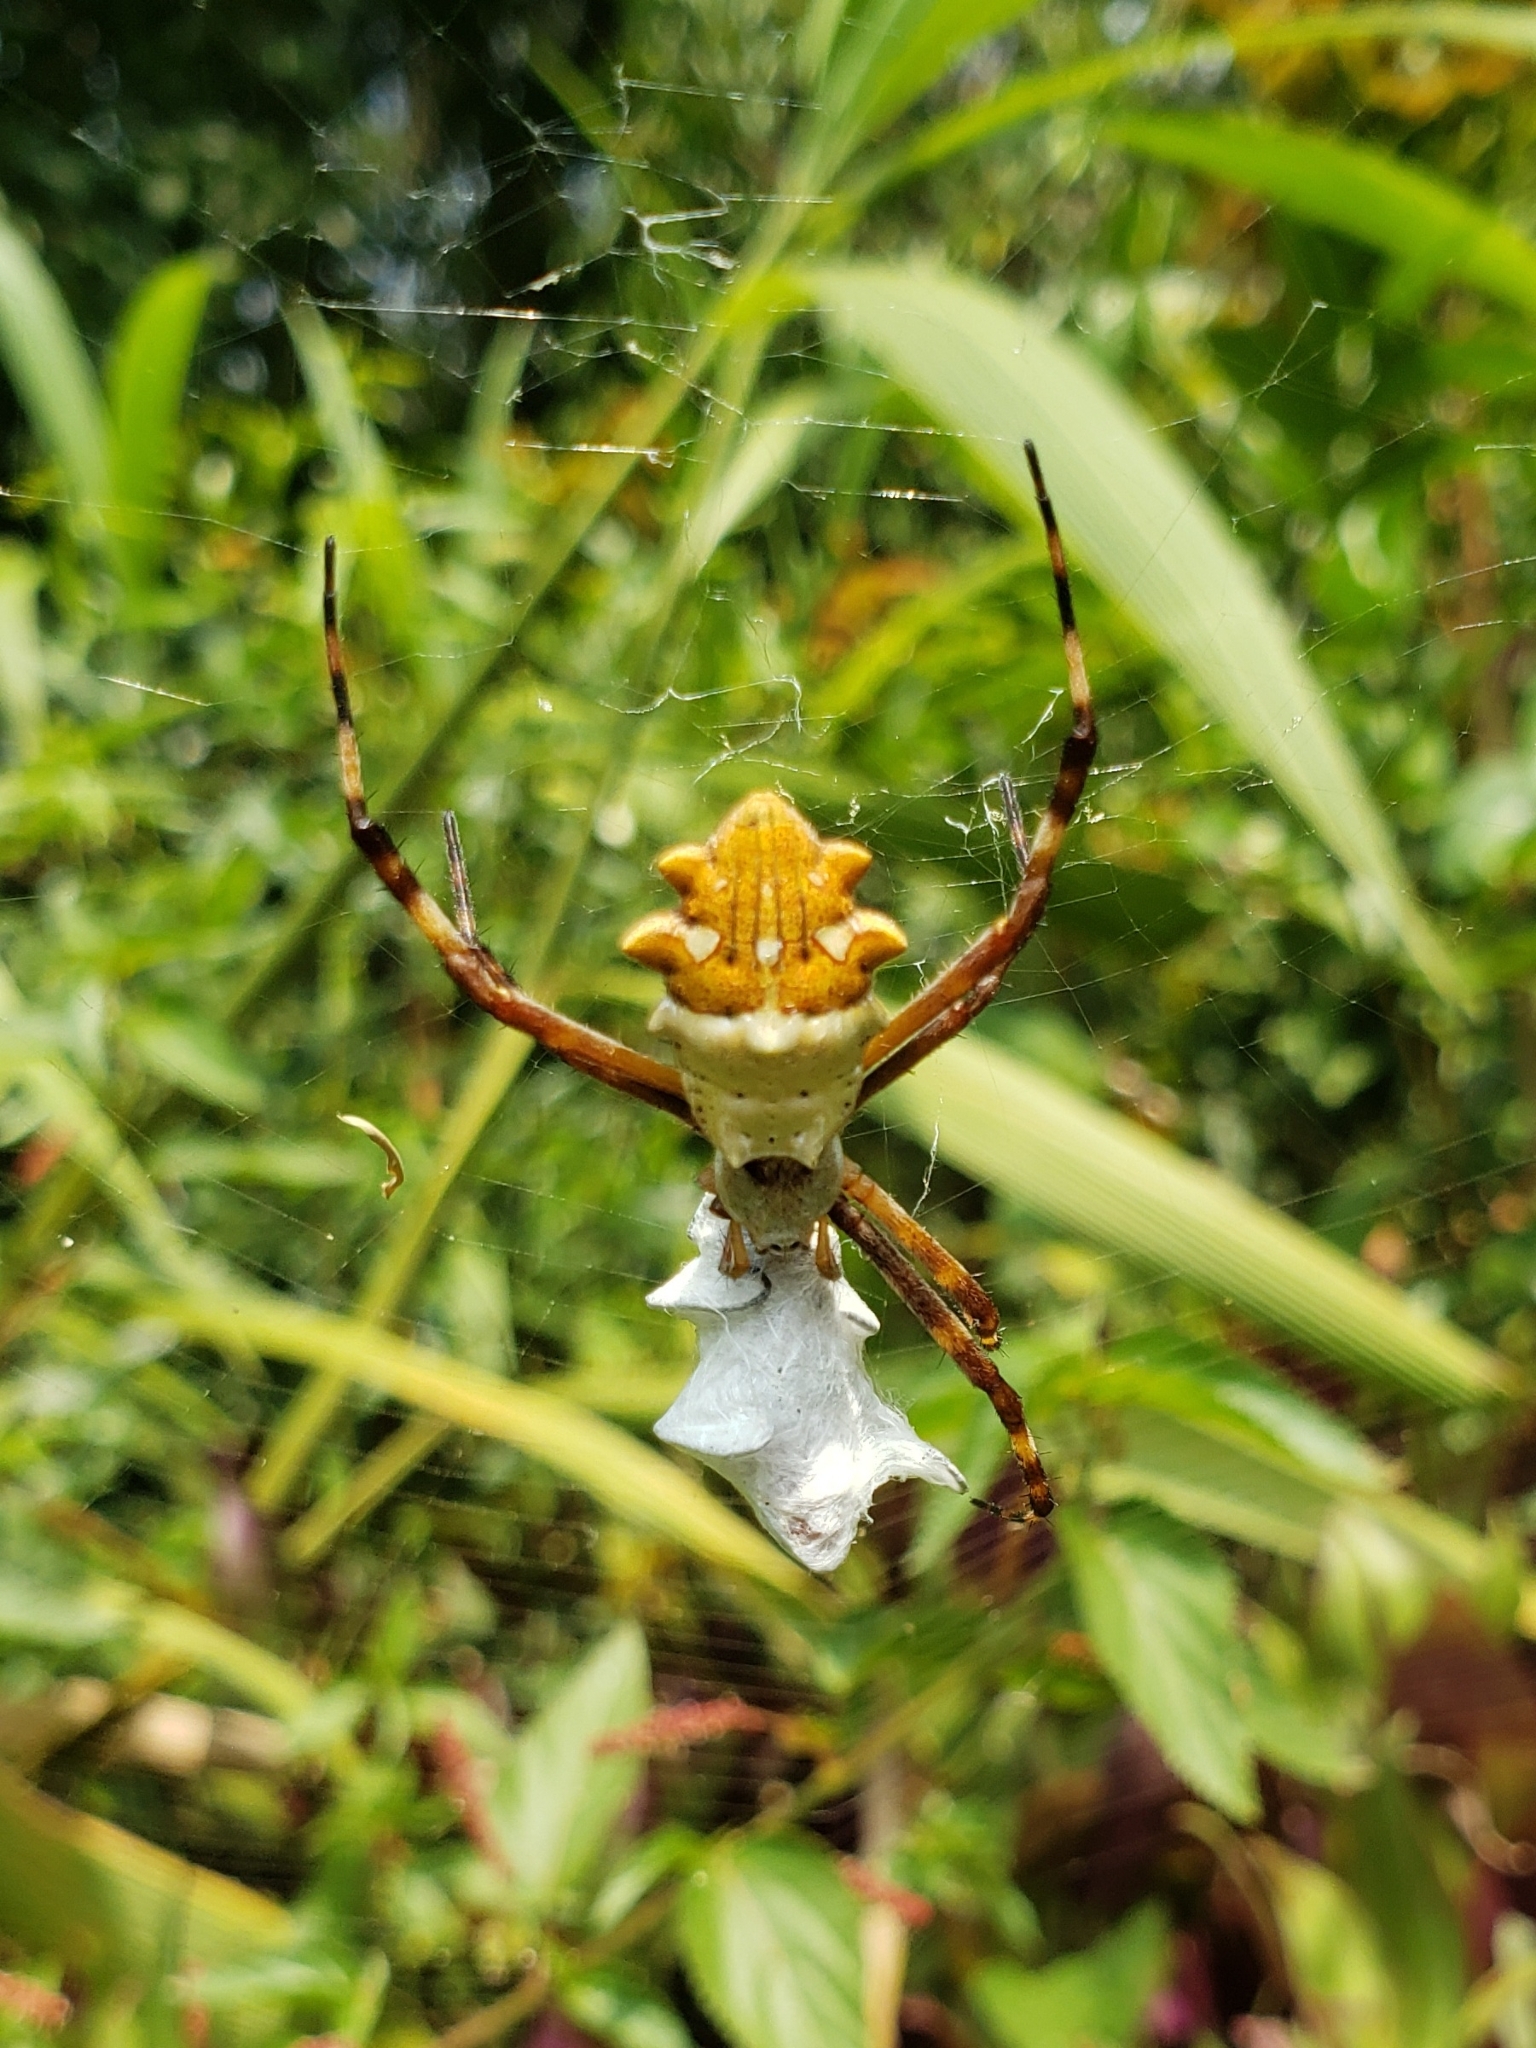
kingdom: Animalia
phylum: Arthropoda
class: Arachnida
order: Araneae
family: Araneidae
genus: Argiope
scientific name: Argiope argentata
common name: Orb weavers
